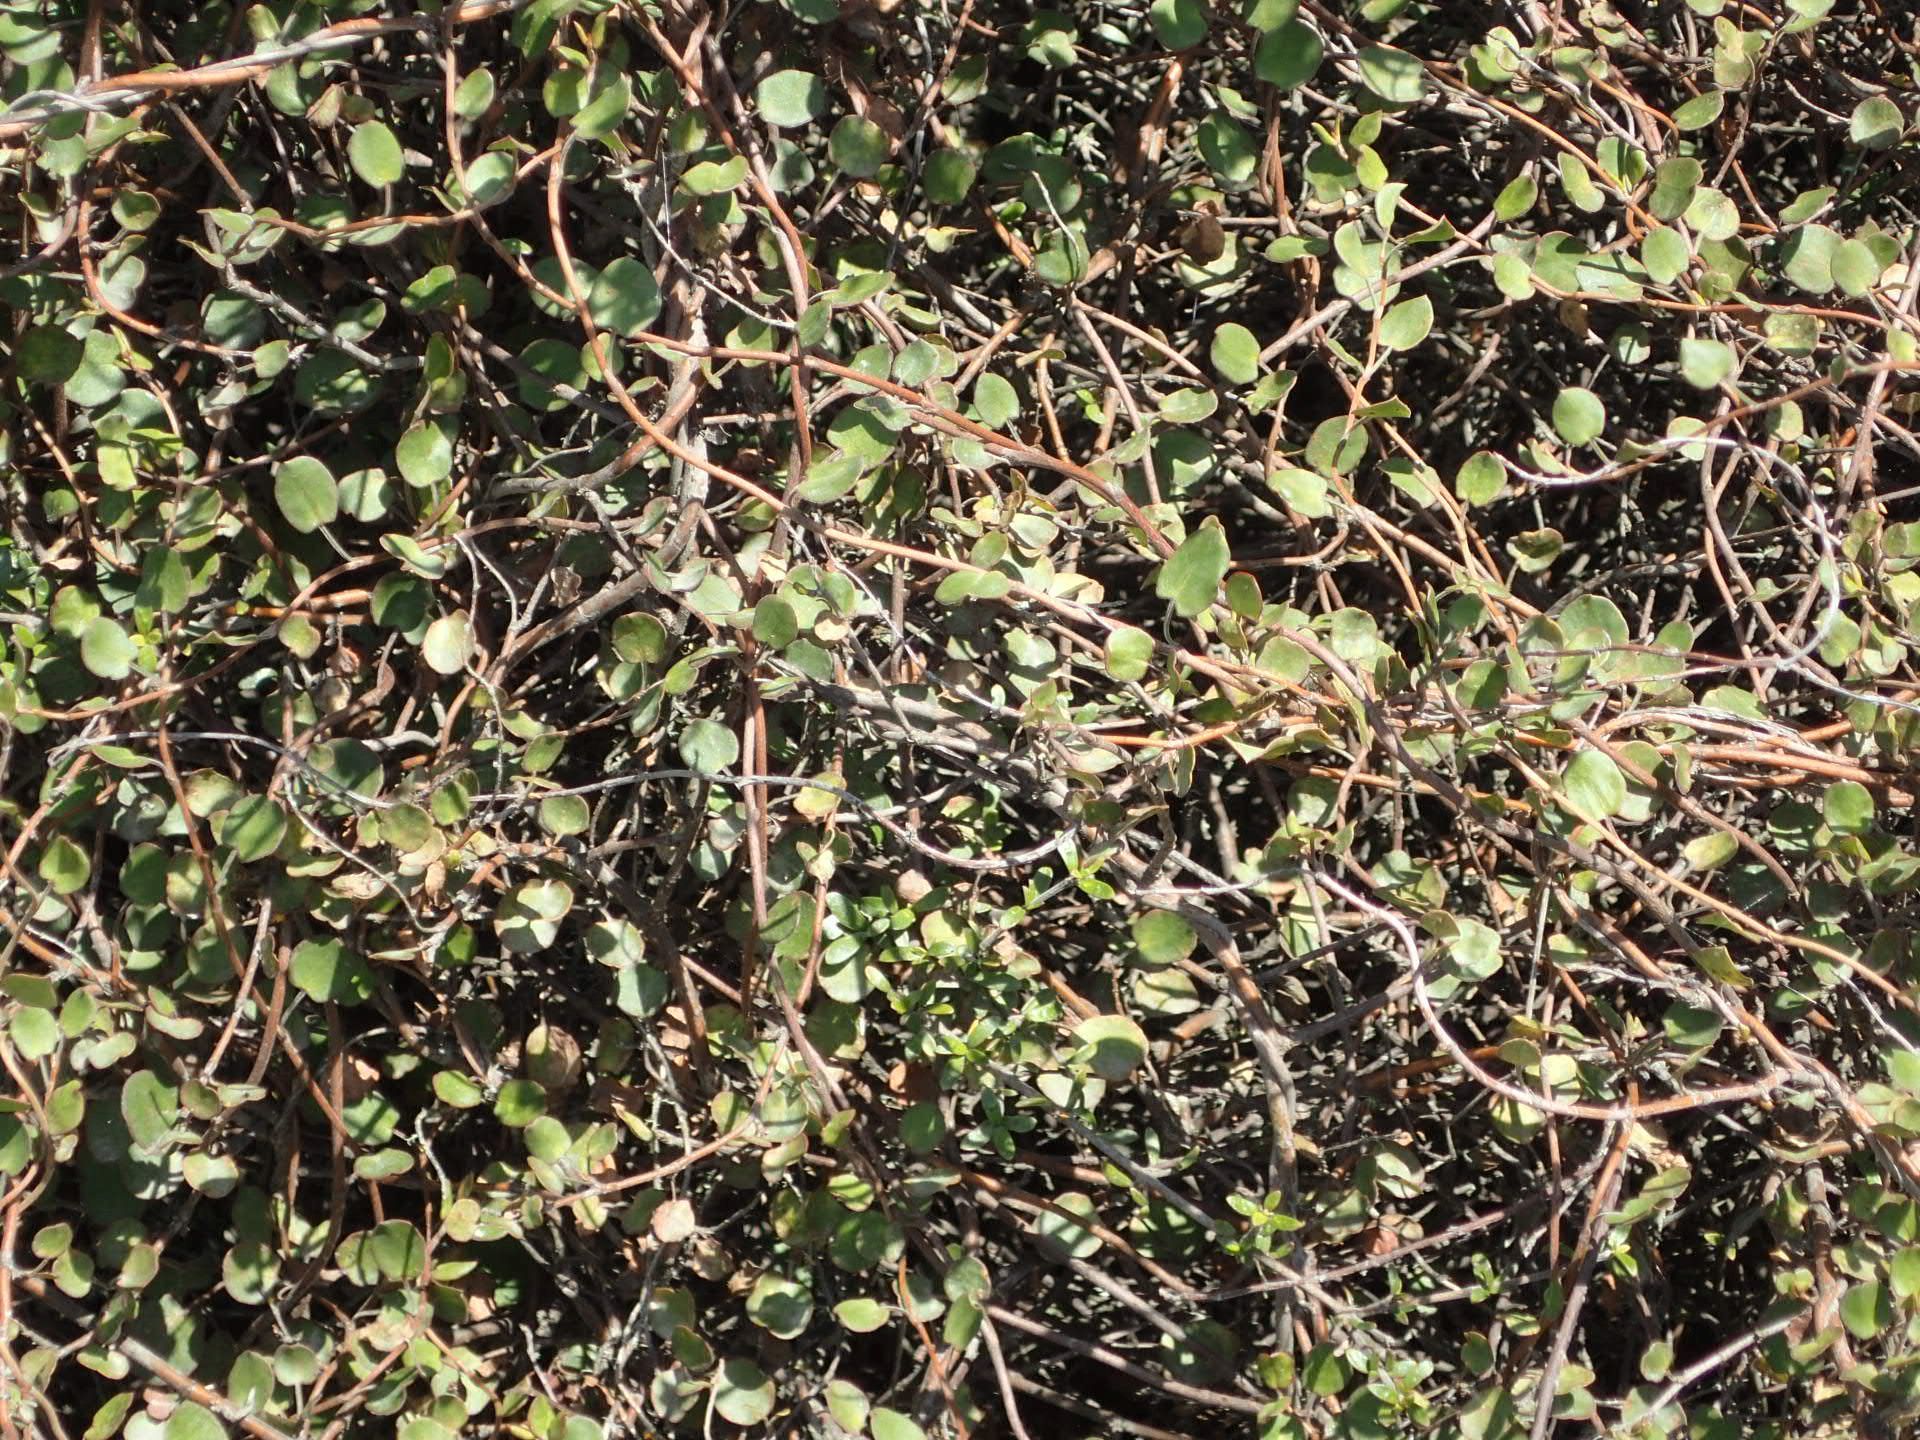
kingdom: Plantae
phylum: Tracheophyta
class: Magnoliopsida
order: Caryophyllales
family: Polygonaceae
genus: Muehlenbeckia
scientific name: Muehlenbeckia complexa
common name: Wireplant
